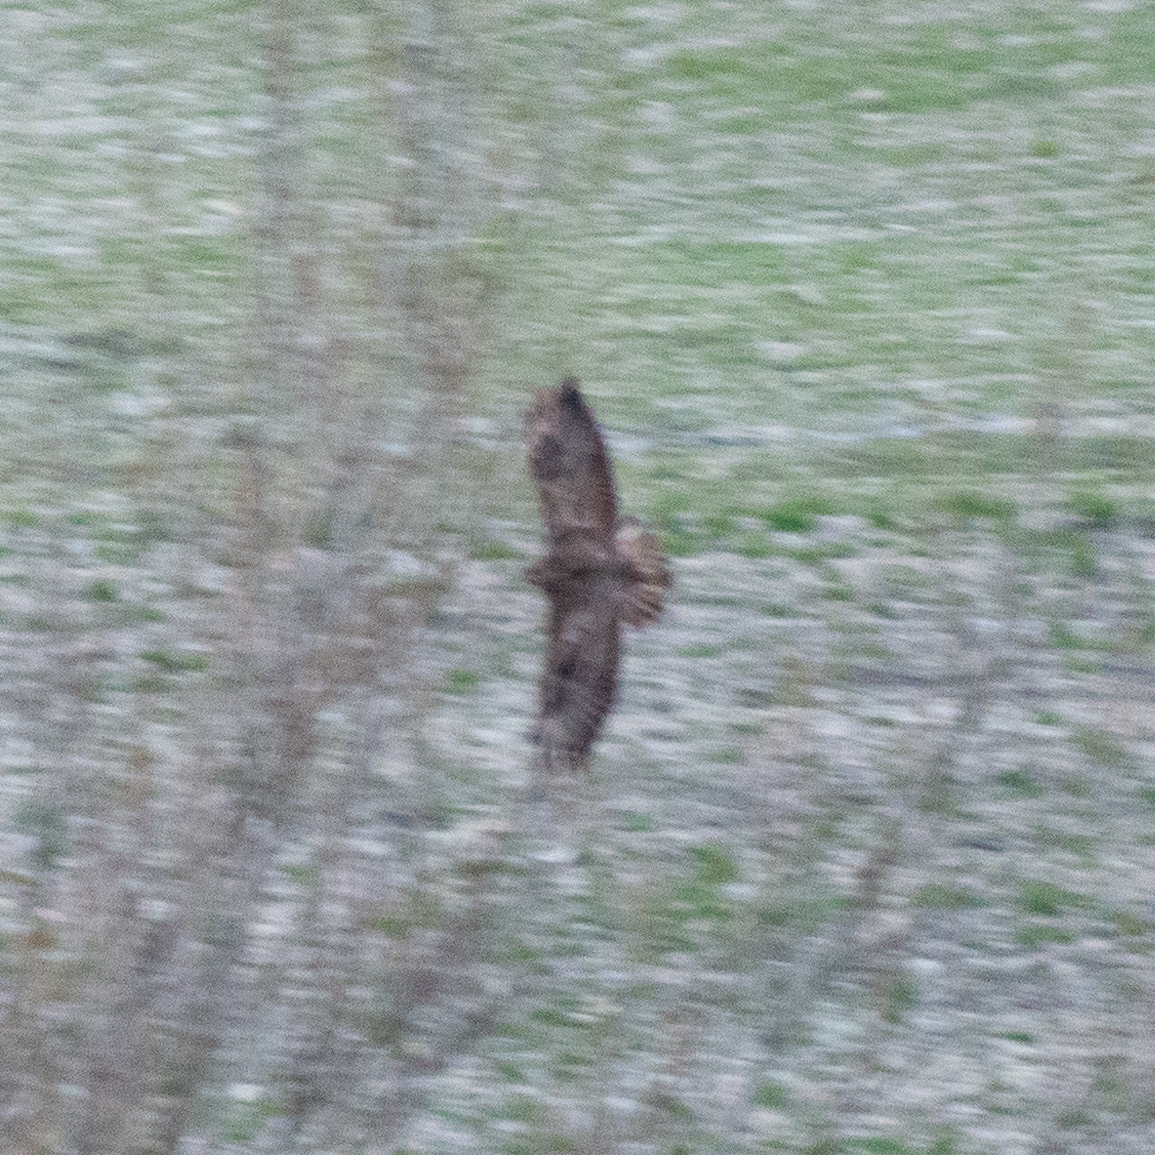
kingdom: Animalia
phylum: Chordata
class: Aves
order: Accipitriformes
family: Accipitridae
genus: Buteo
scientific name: Buteo buteo
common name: Common buzzard
